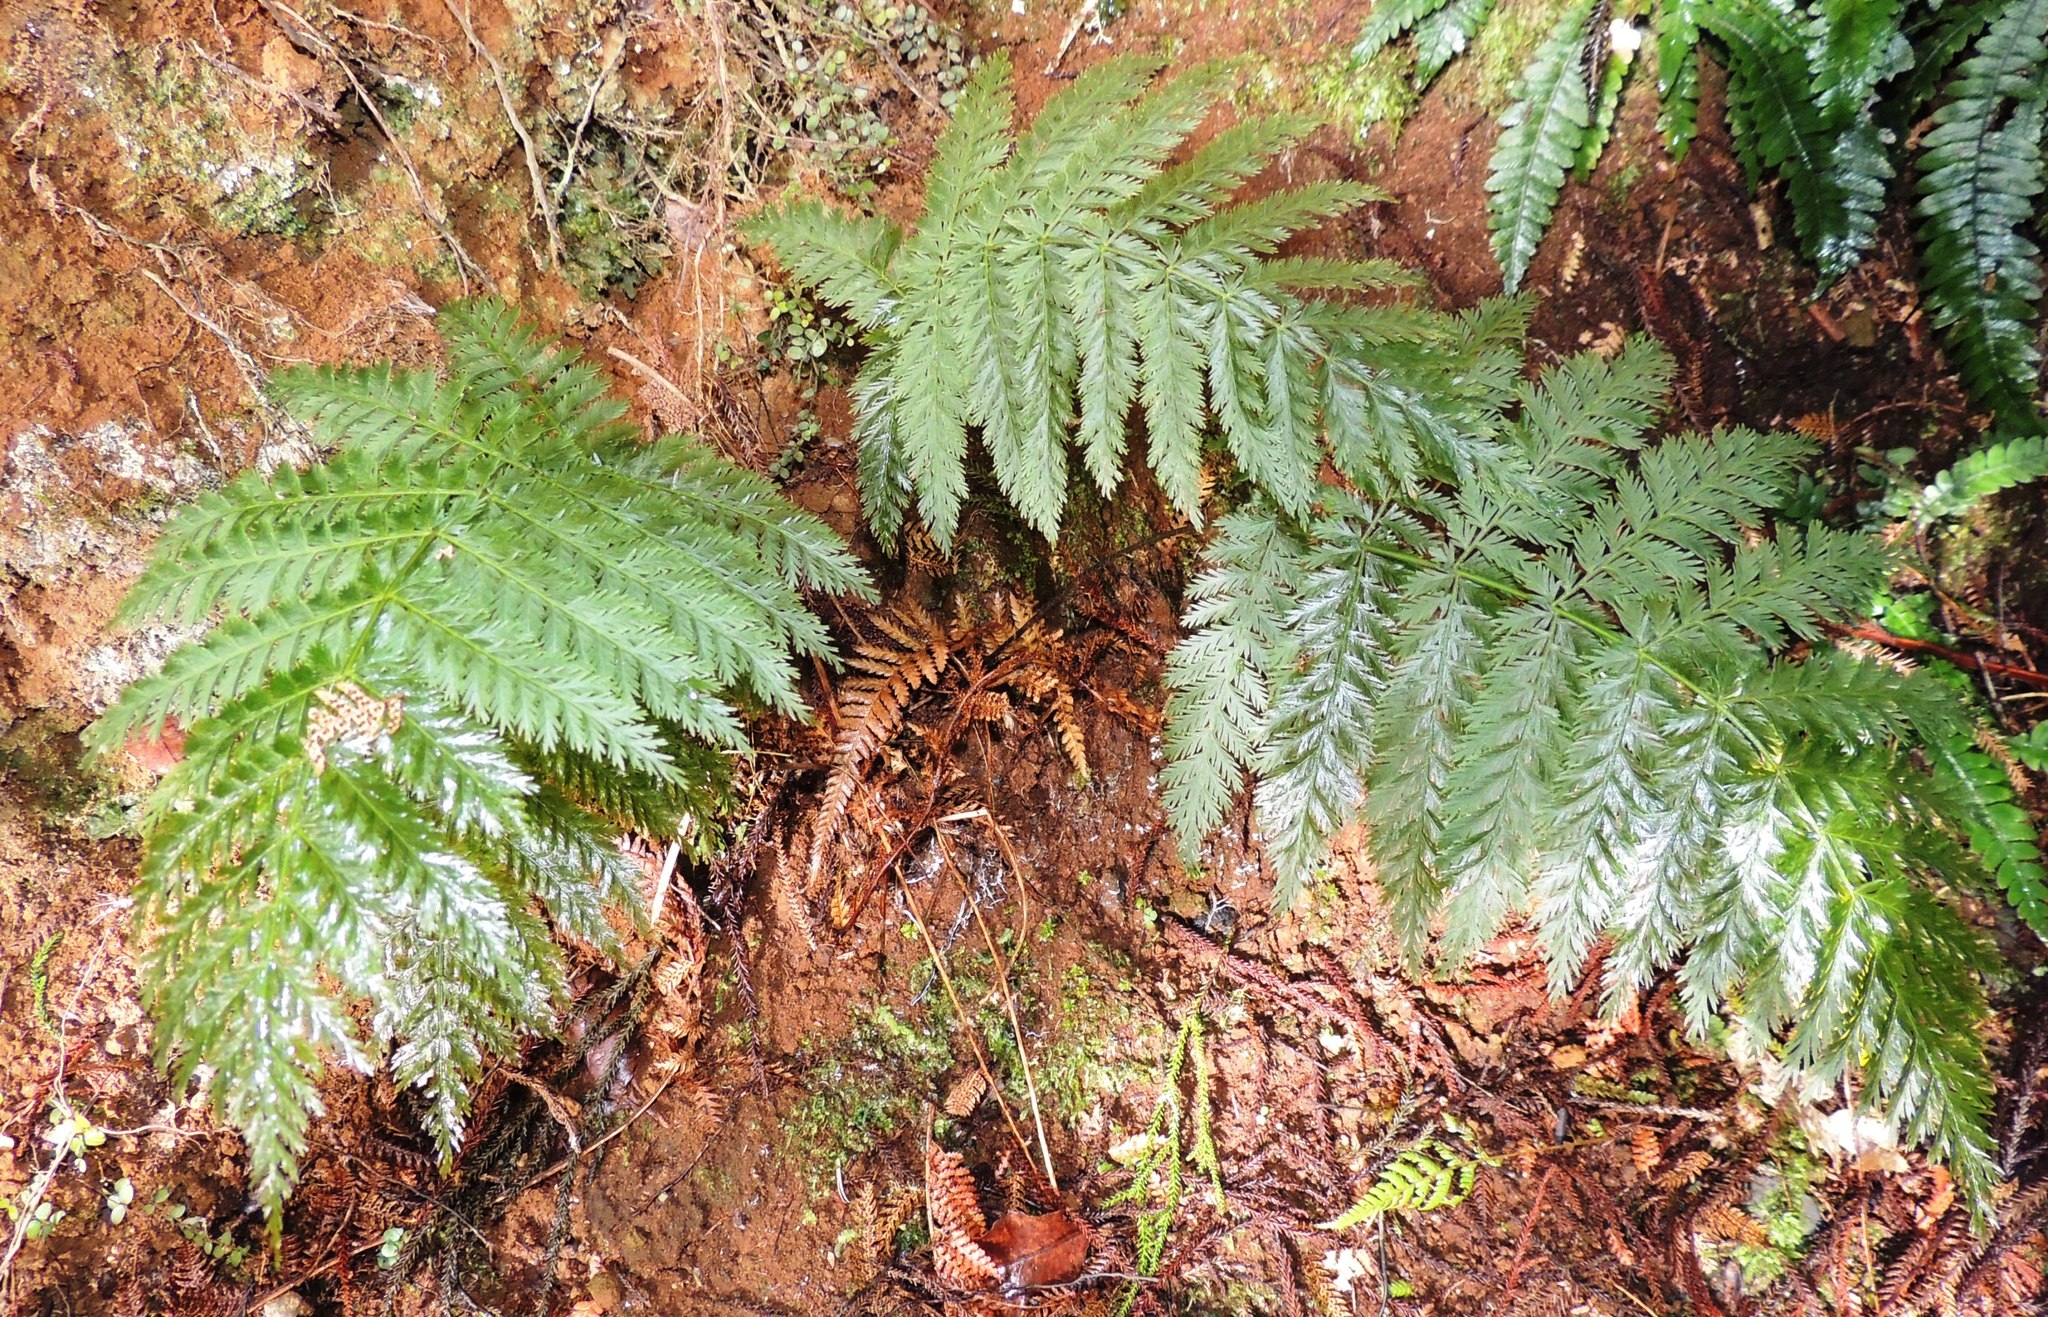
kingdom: Plantae
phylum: Tracheophyta
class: Polypodiopsida
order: Osmundales
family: Osmundaceae
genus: Leptopteris
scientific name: Leptopteris hymenophylloides
